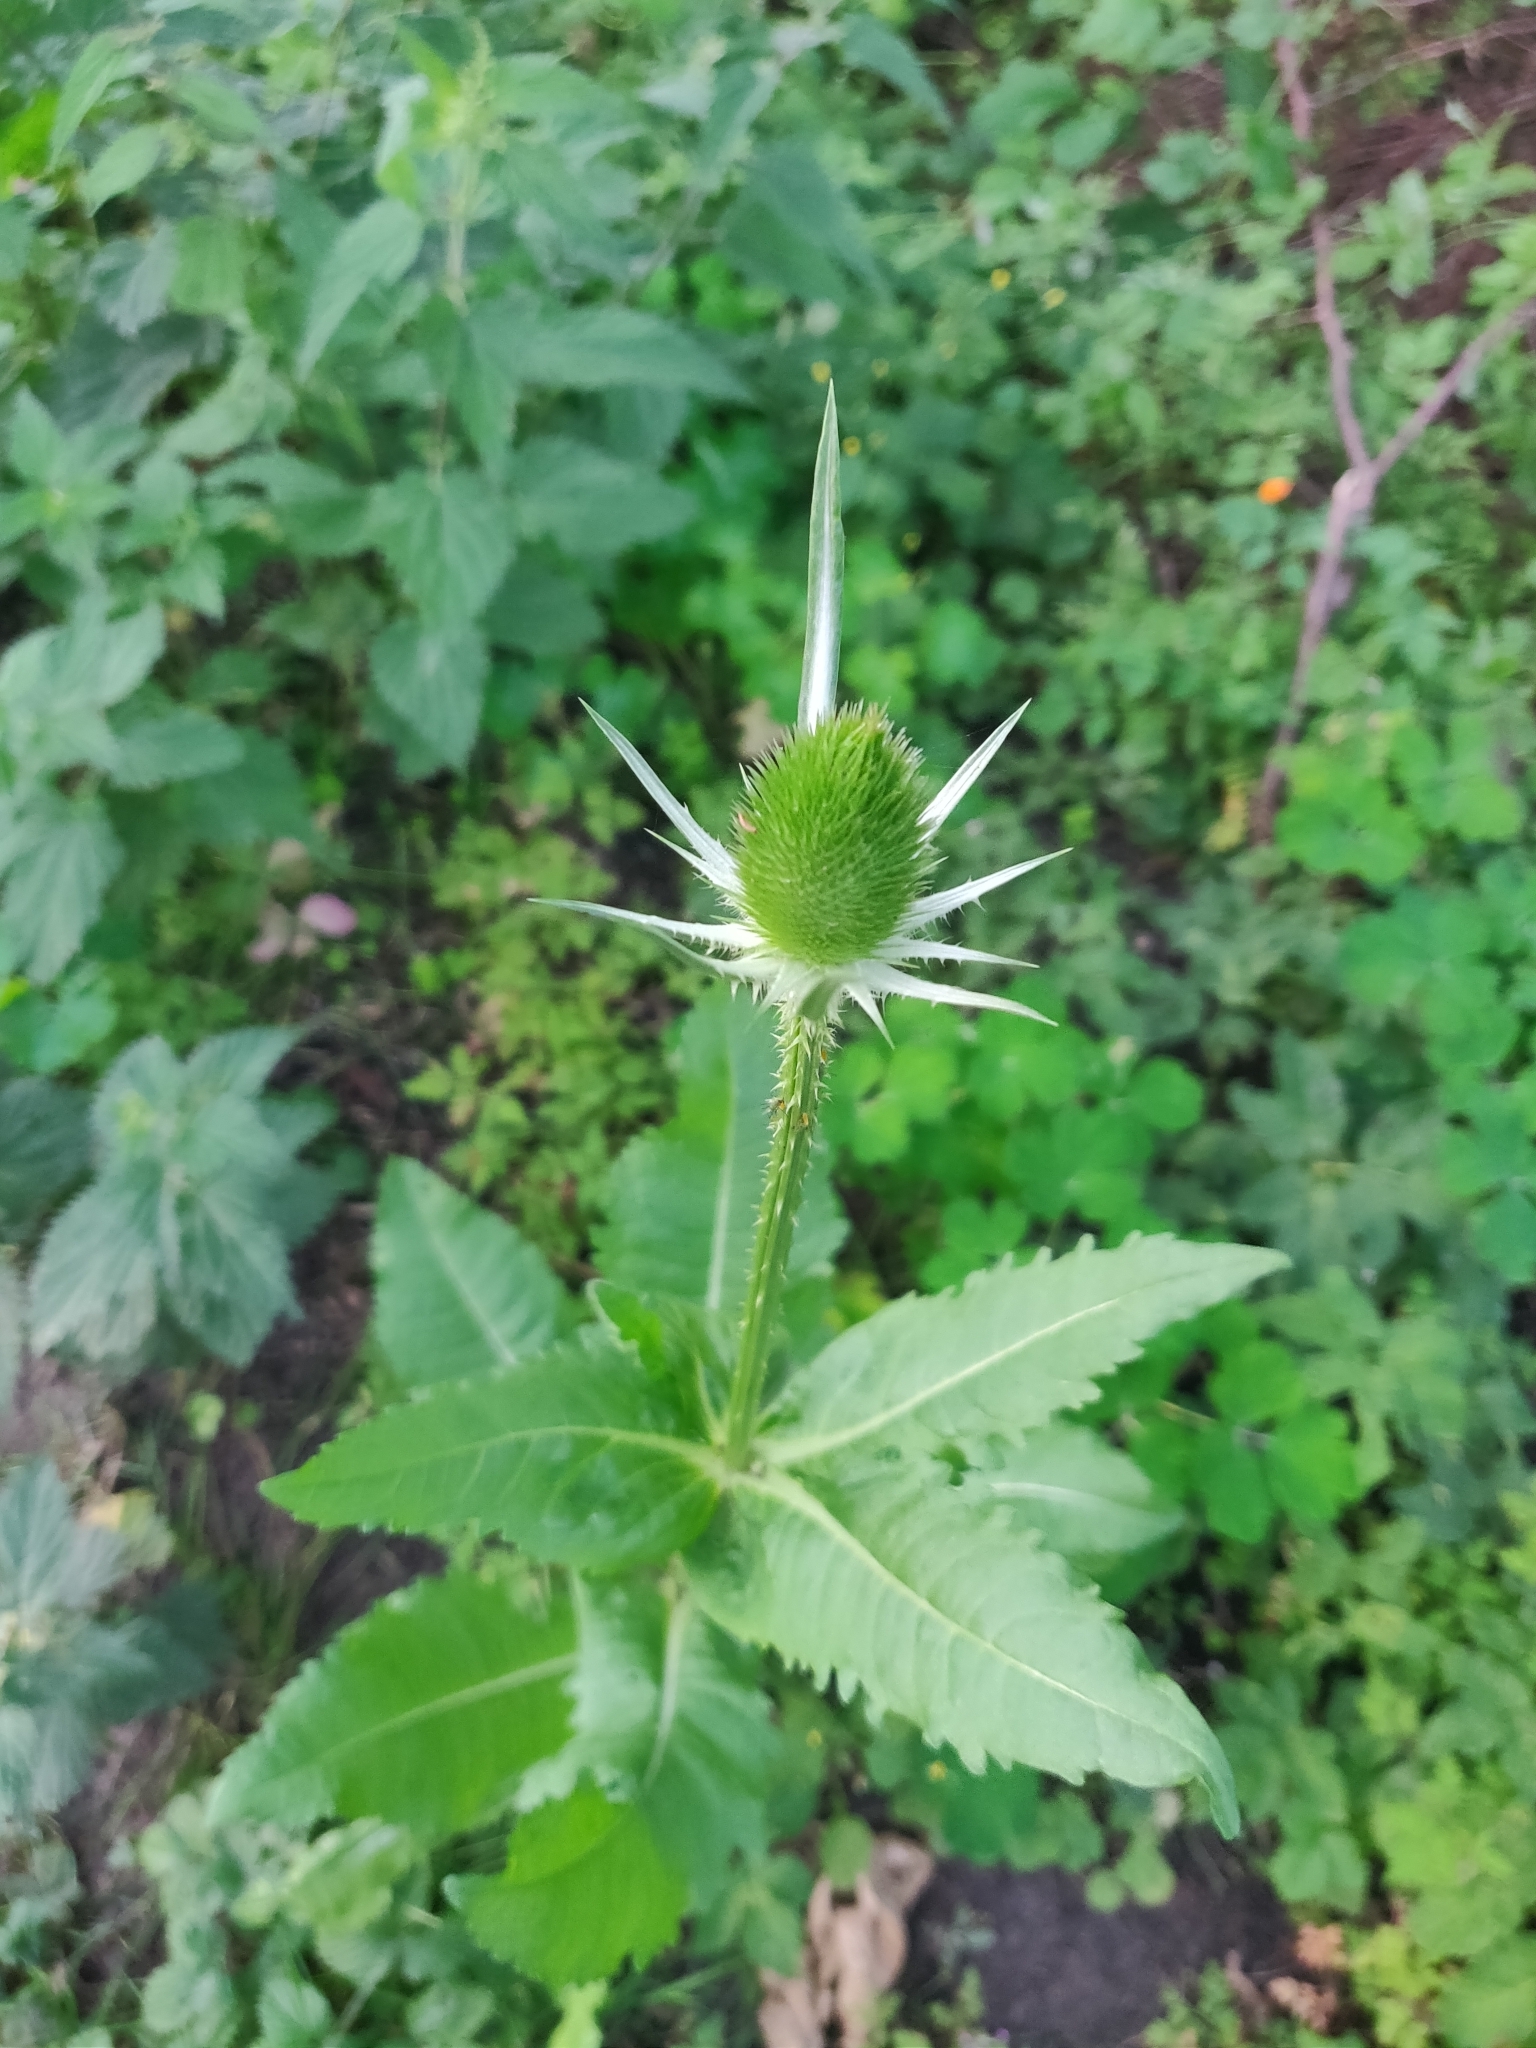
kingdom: Plantae
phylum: Tracheophyta
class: Magnoliopsida
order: Dipsacales
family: Caprifoliaceae
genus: Dipsacus
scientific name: Dipsacus fullonum
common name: Teasel
